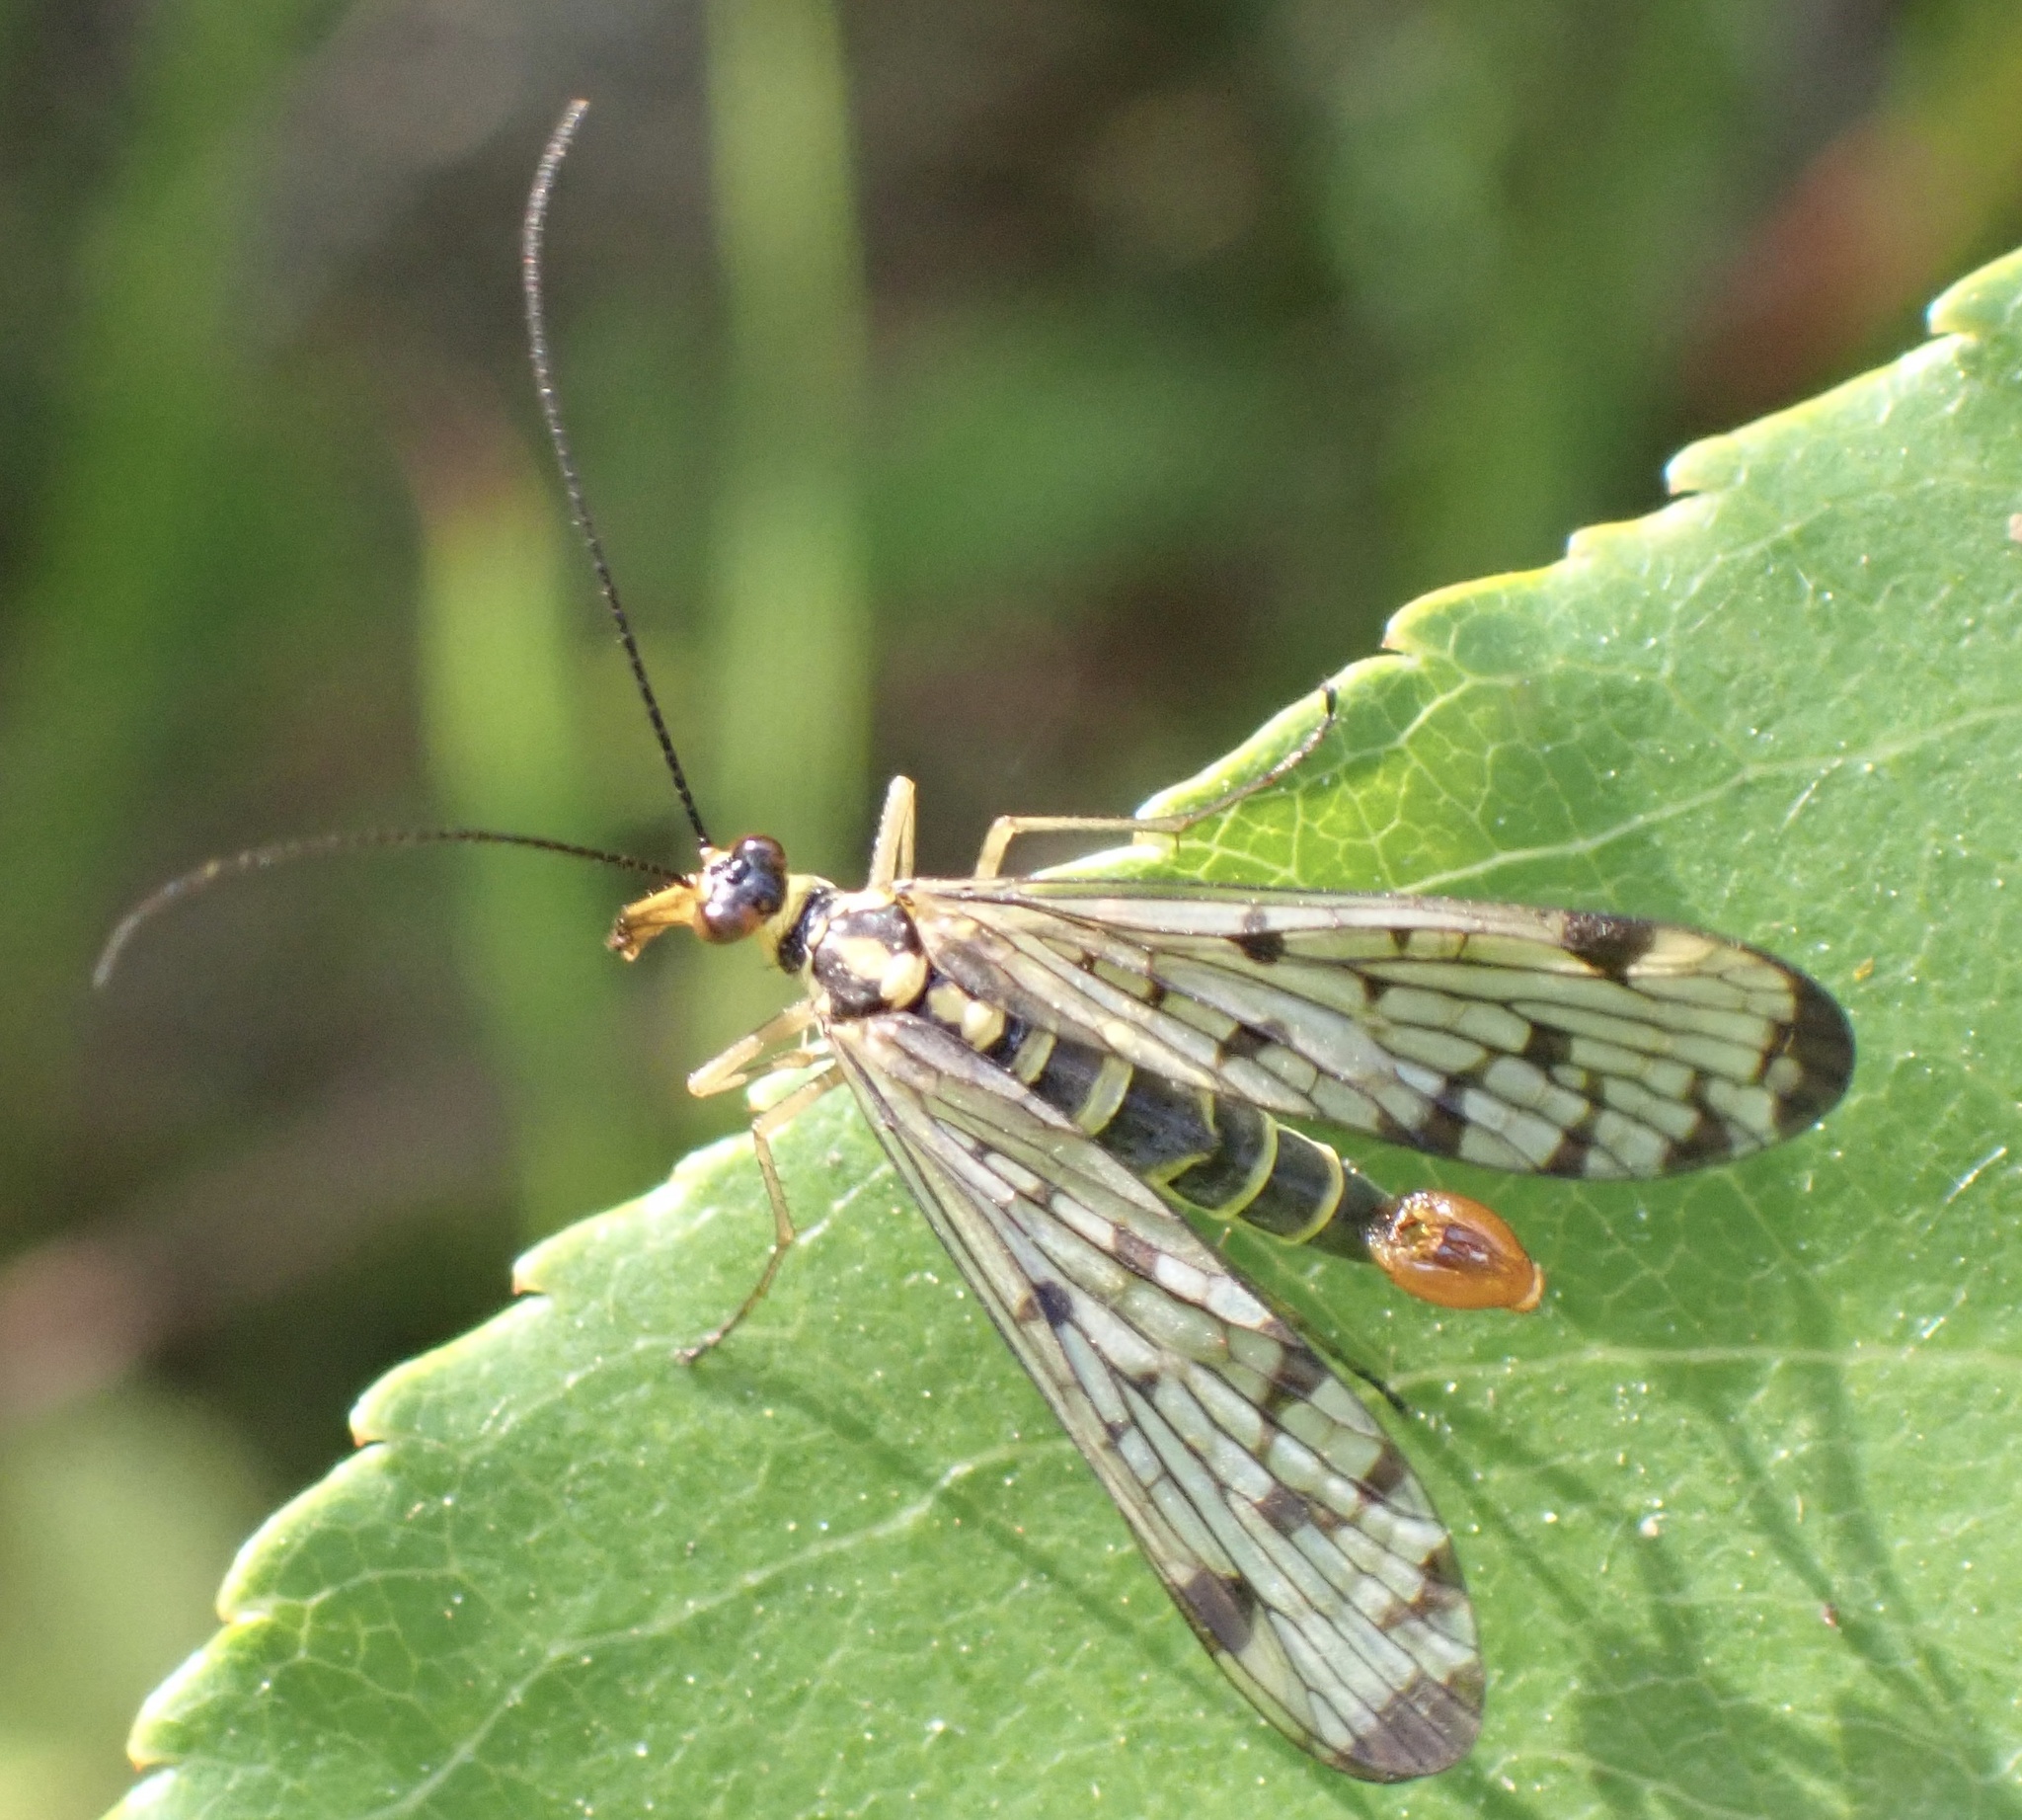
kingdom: Animalia
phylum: Arthropoda
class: Insecta
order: Mecoptera
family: Panorpidae
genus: Panorpa
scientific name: Panorpa germanica
